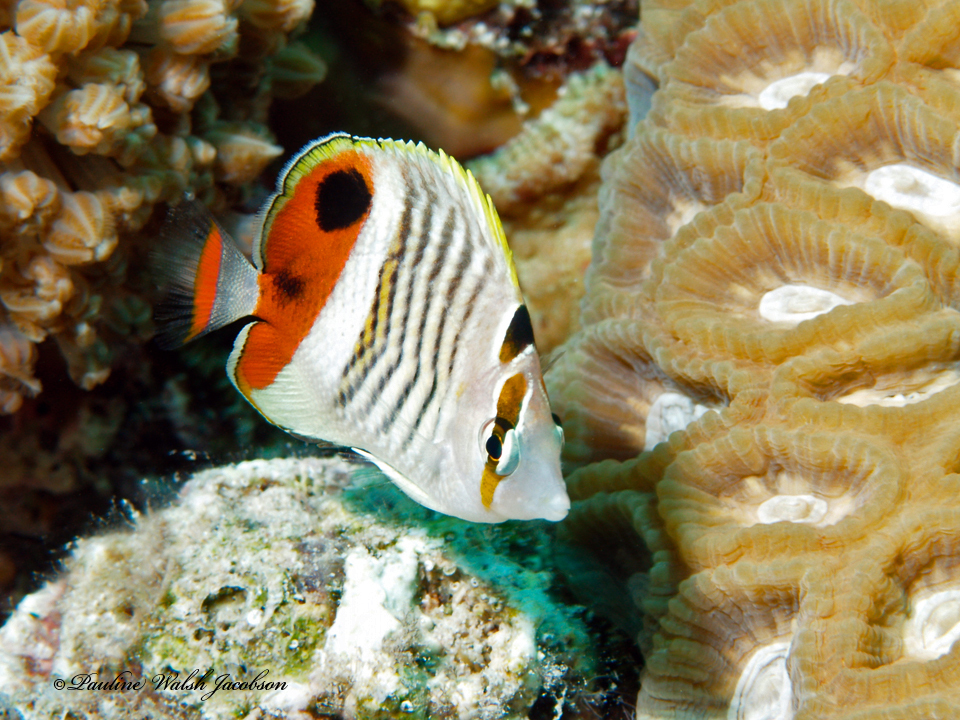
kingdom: Animalia
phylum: Chordata
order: Perciformes
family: Chaetodontidae
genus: Chaetodon
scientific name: Chaetodon paucifasciatus
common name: Crown butterflyfish
